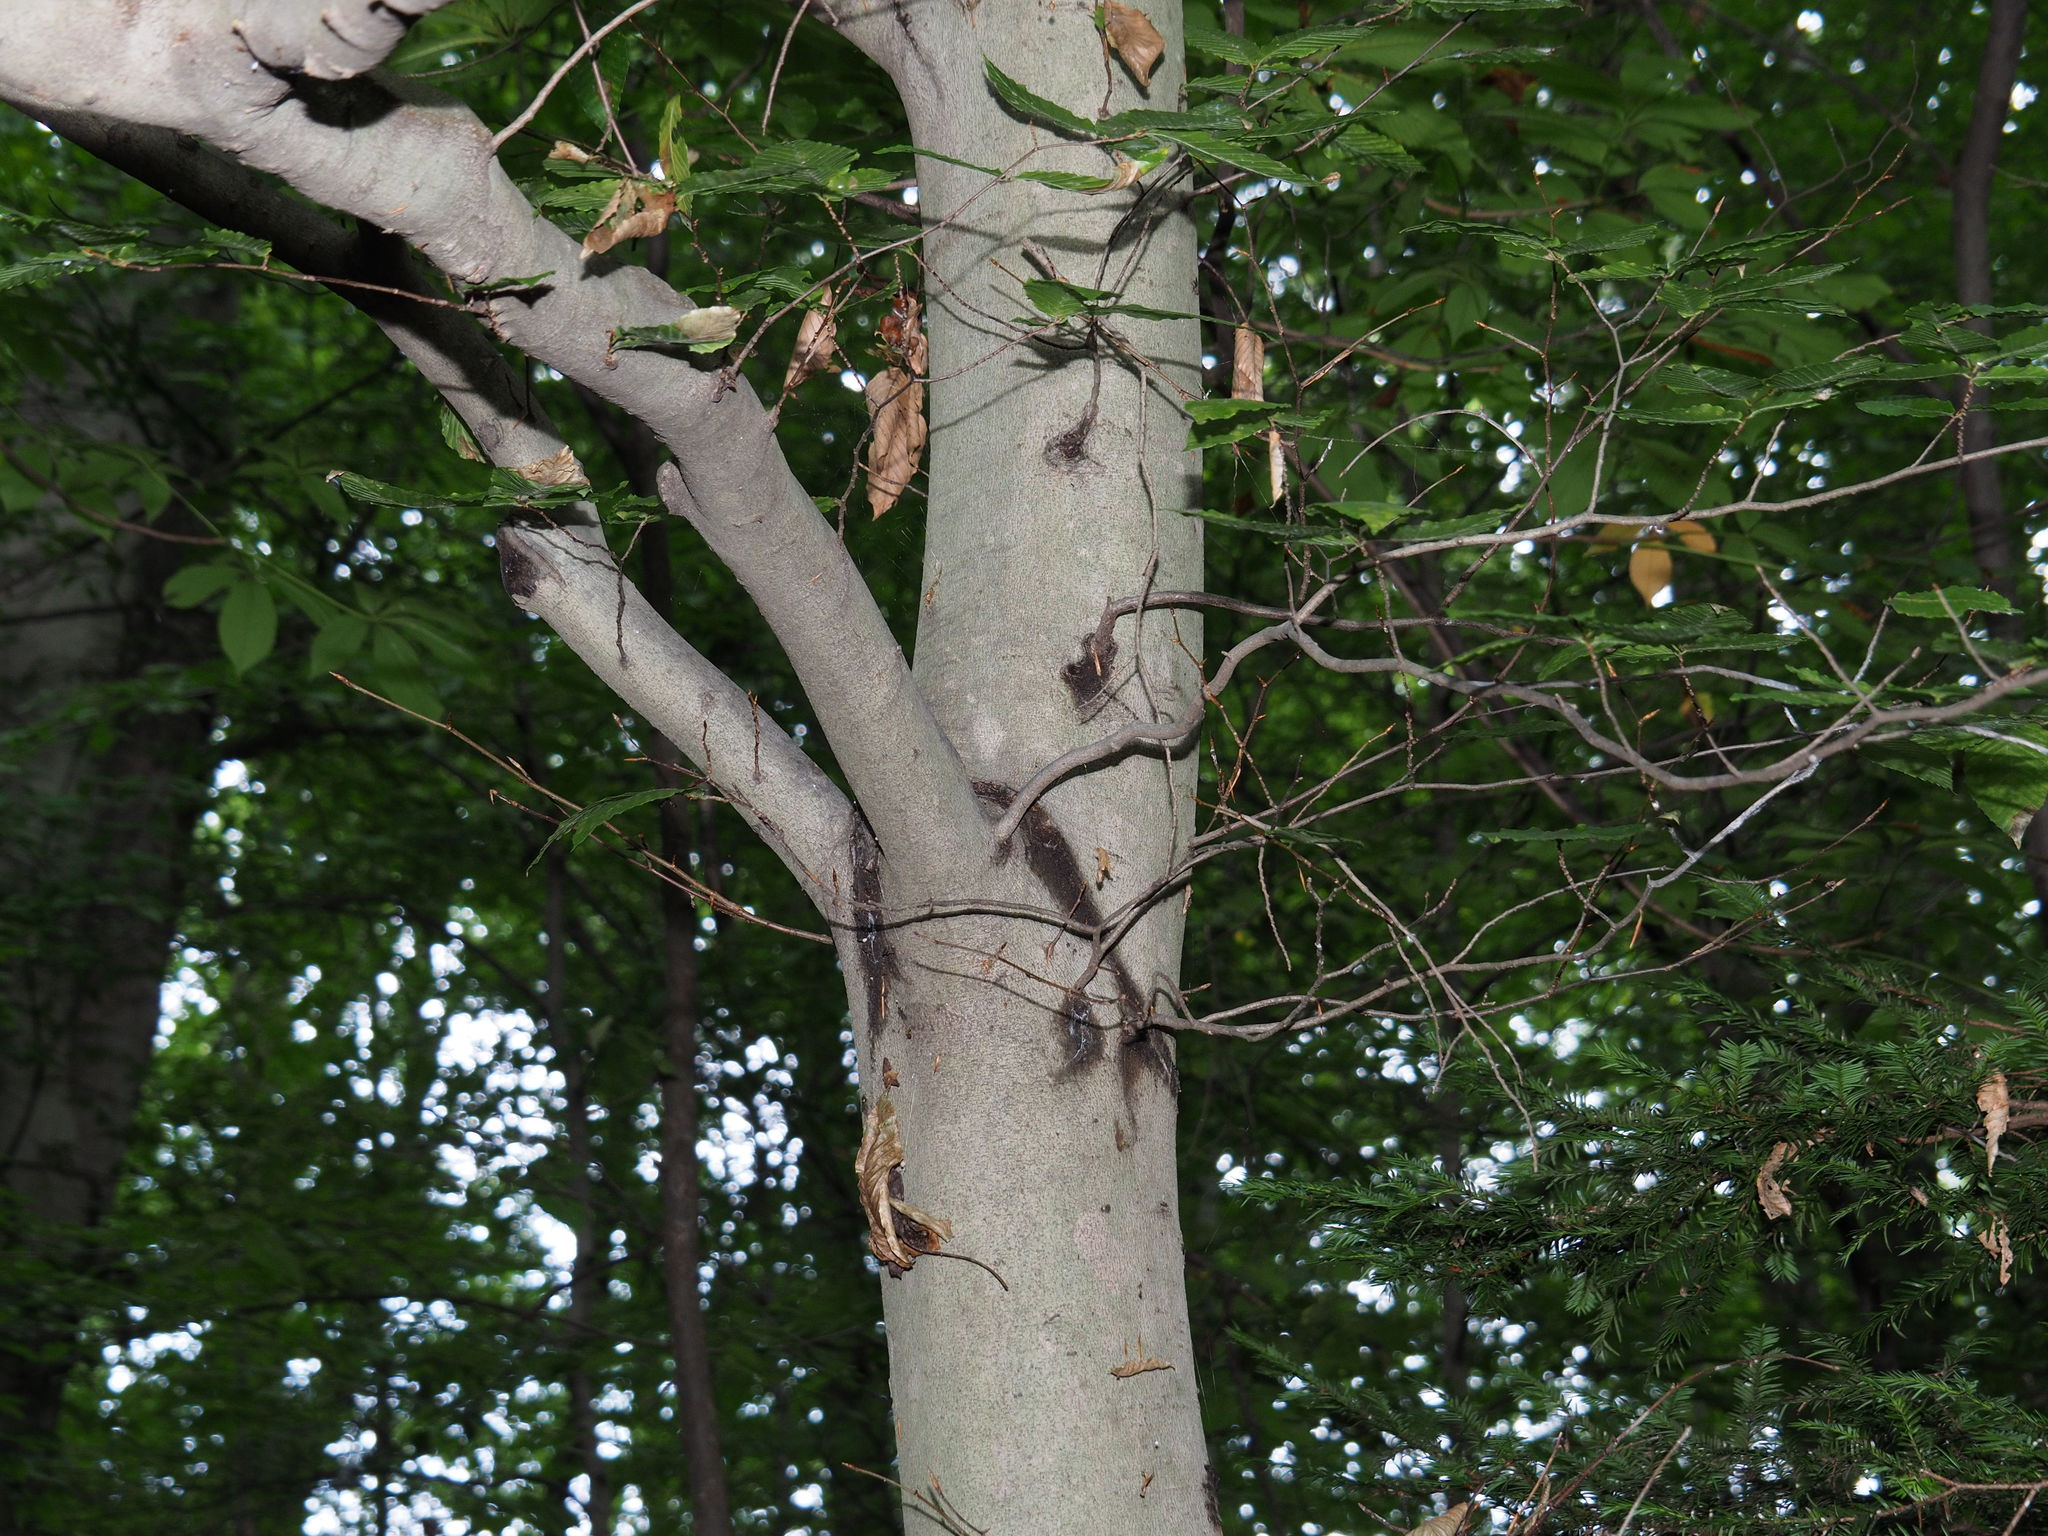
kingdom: Plantae
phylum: Tracheophyta
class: Magnoliopsida
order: Fagales
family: Fagaceae
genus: Fagus
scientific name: Fagus grandifolia
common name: American beech
